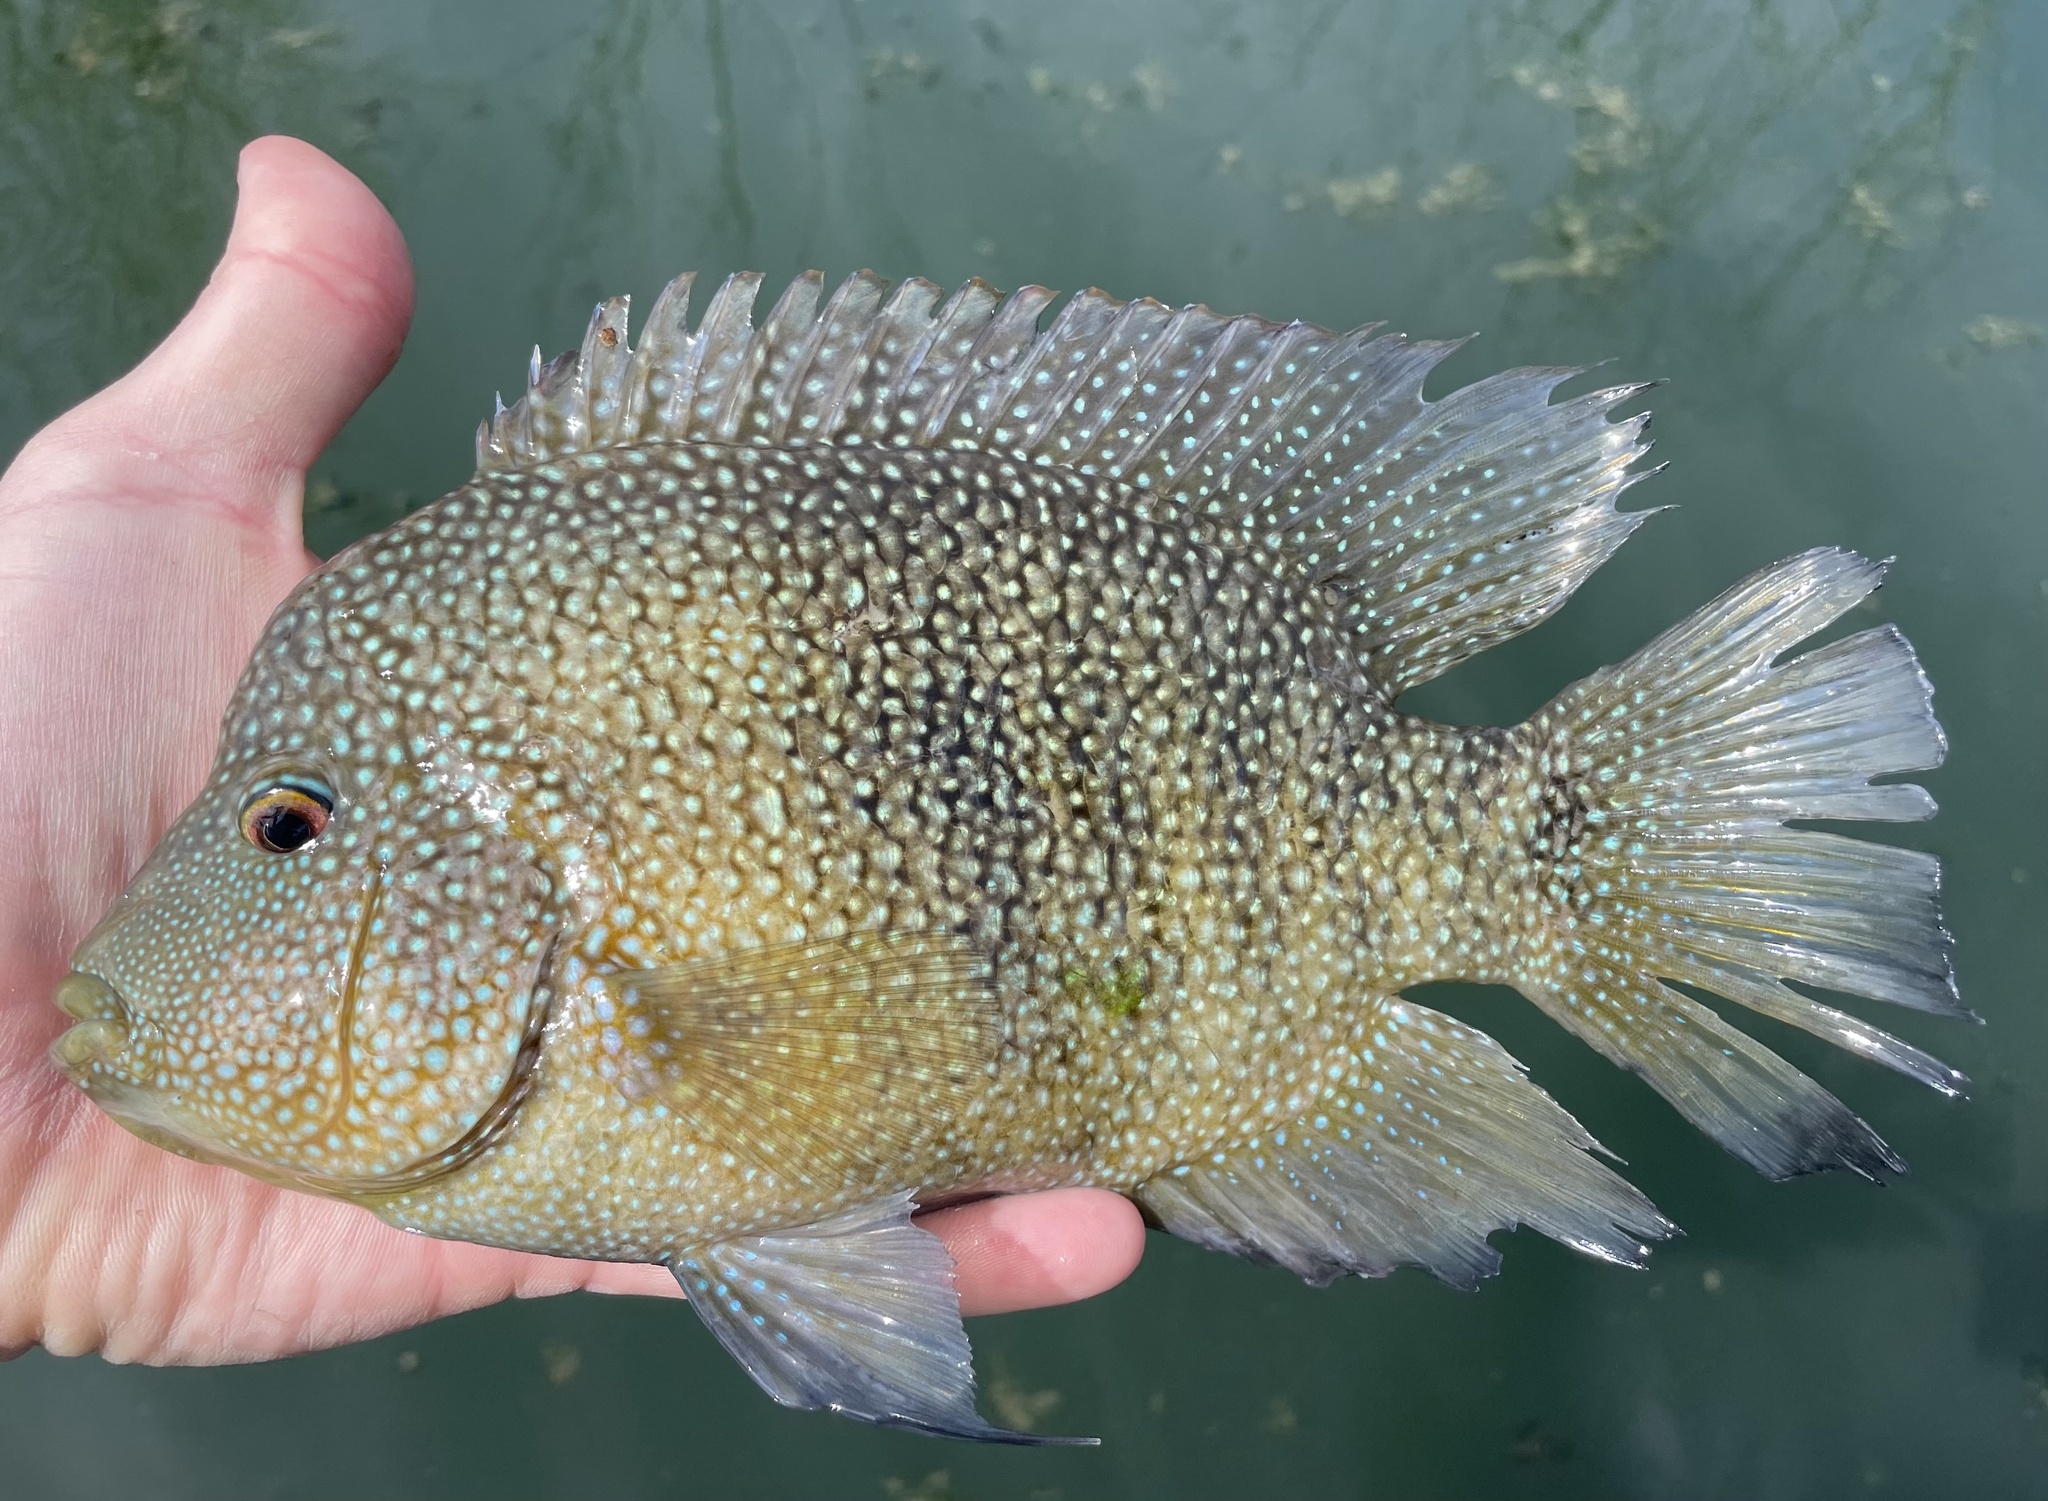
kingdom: Animalia
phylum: Chordata
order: Perciformes
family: Cichlidae
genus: Herichthys
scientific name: Herichthys cyanoguttatus
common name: Rio grande cichlid
